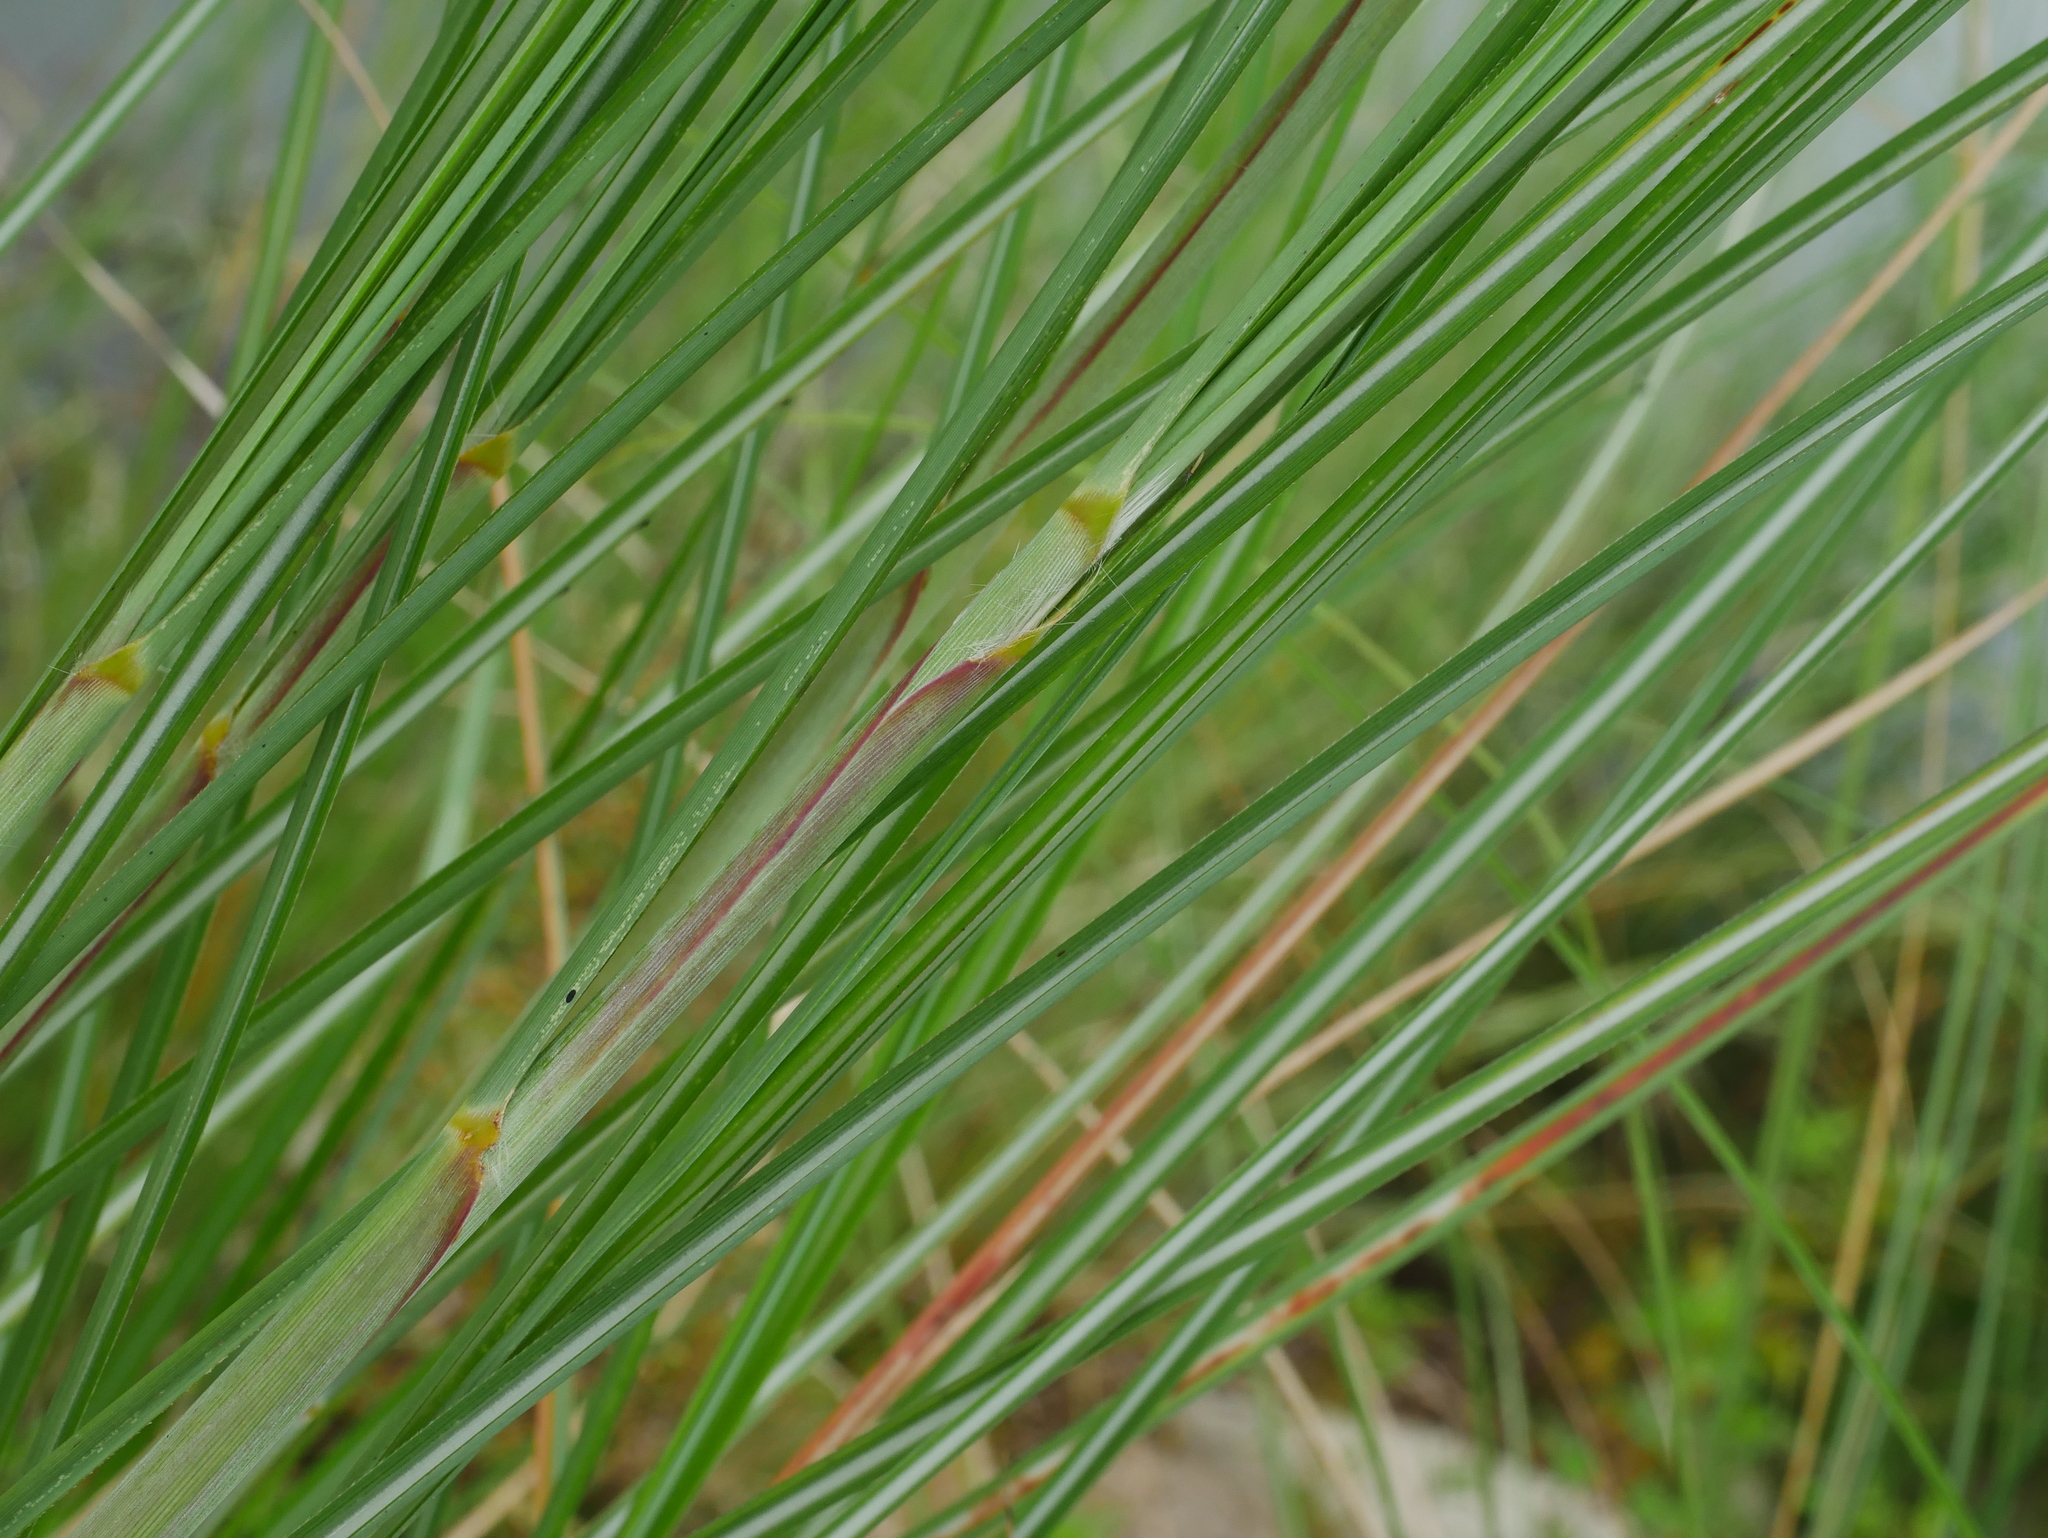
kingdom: Plantae
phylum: Tracheophyta
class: Liliopsida
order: Poales
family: Poaceae
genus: Saccharum
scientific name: Saccharum spontaneum
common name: Wild sugarcane
